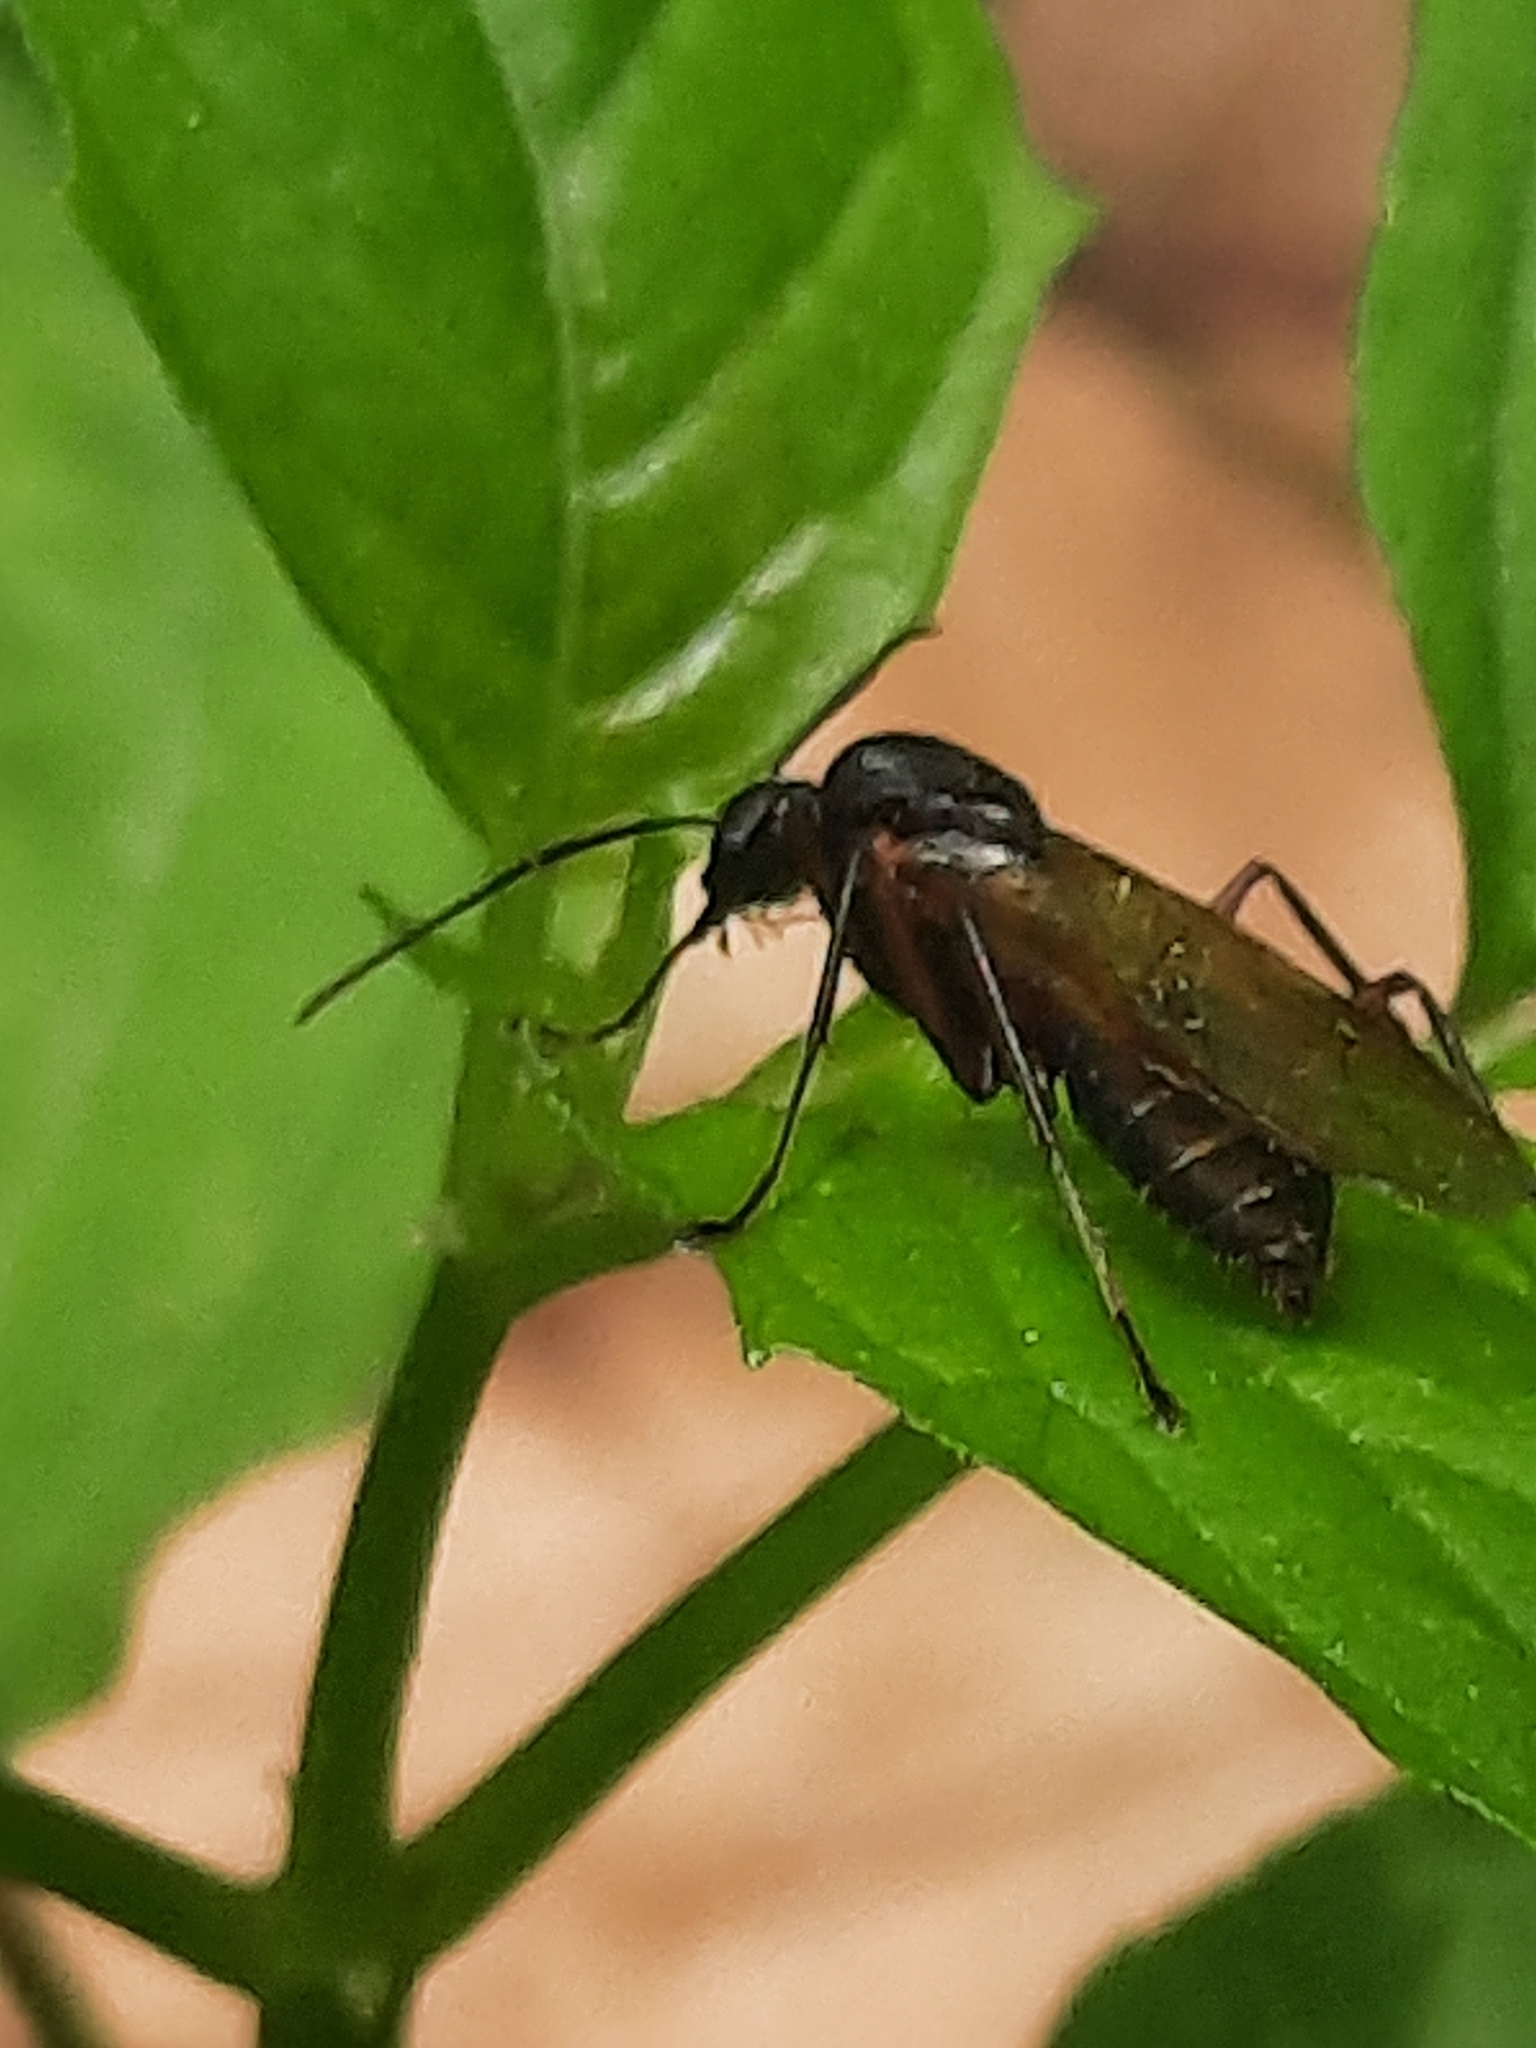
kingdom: Animalia
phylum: Arthropoda
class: Insecta
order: Hymenoptera
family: Formicidae
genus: Camponotus
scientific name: Camponotus chromaiodes
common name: Red carpenter ant
